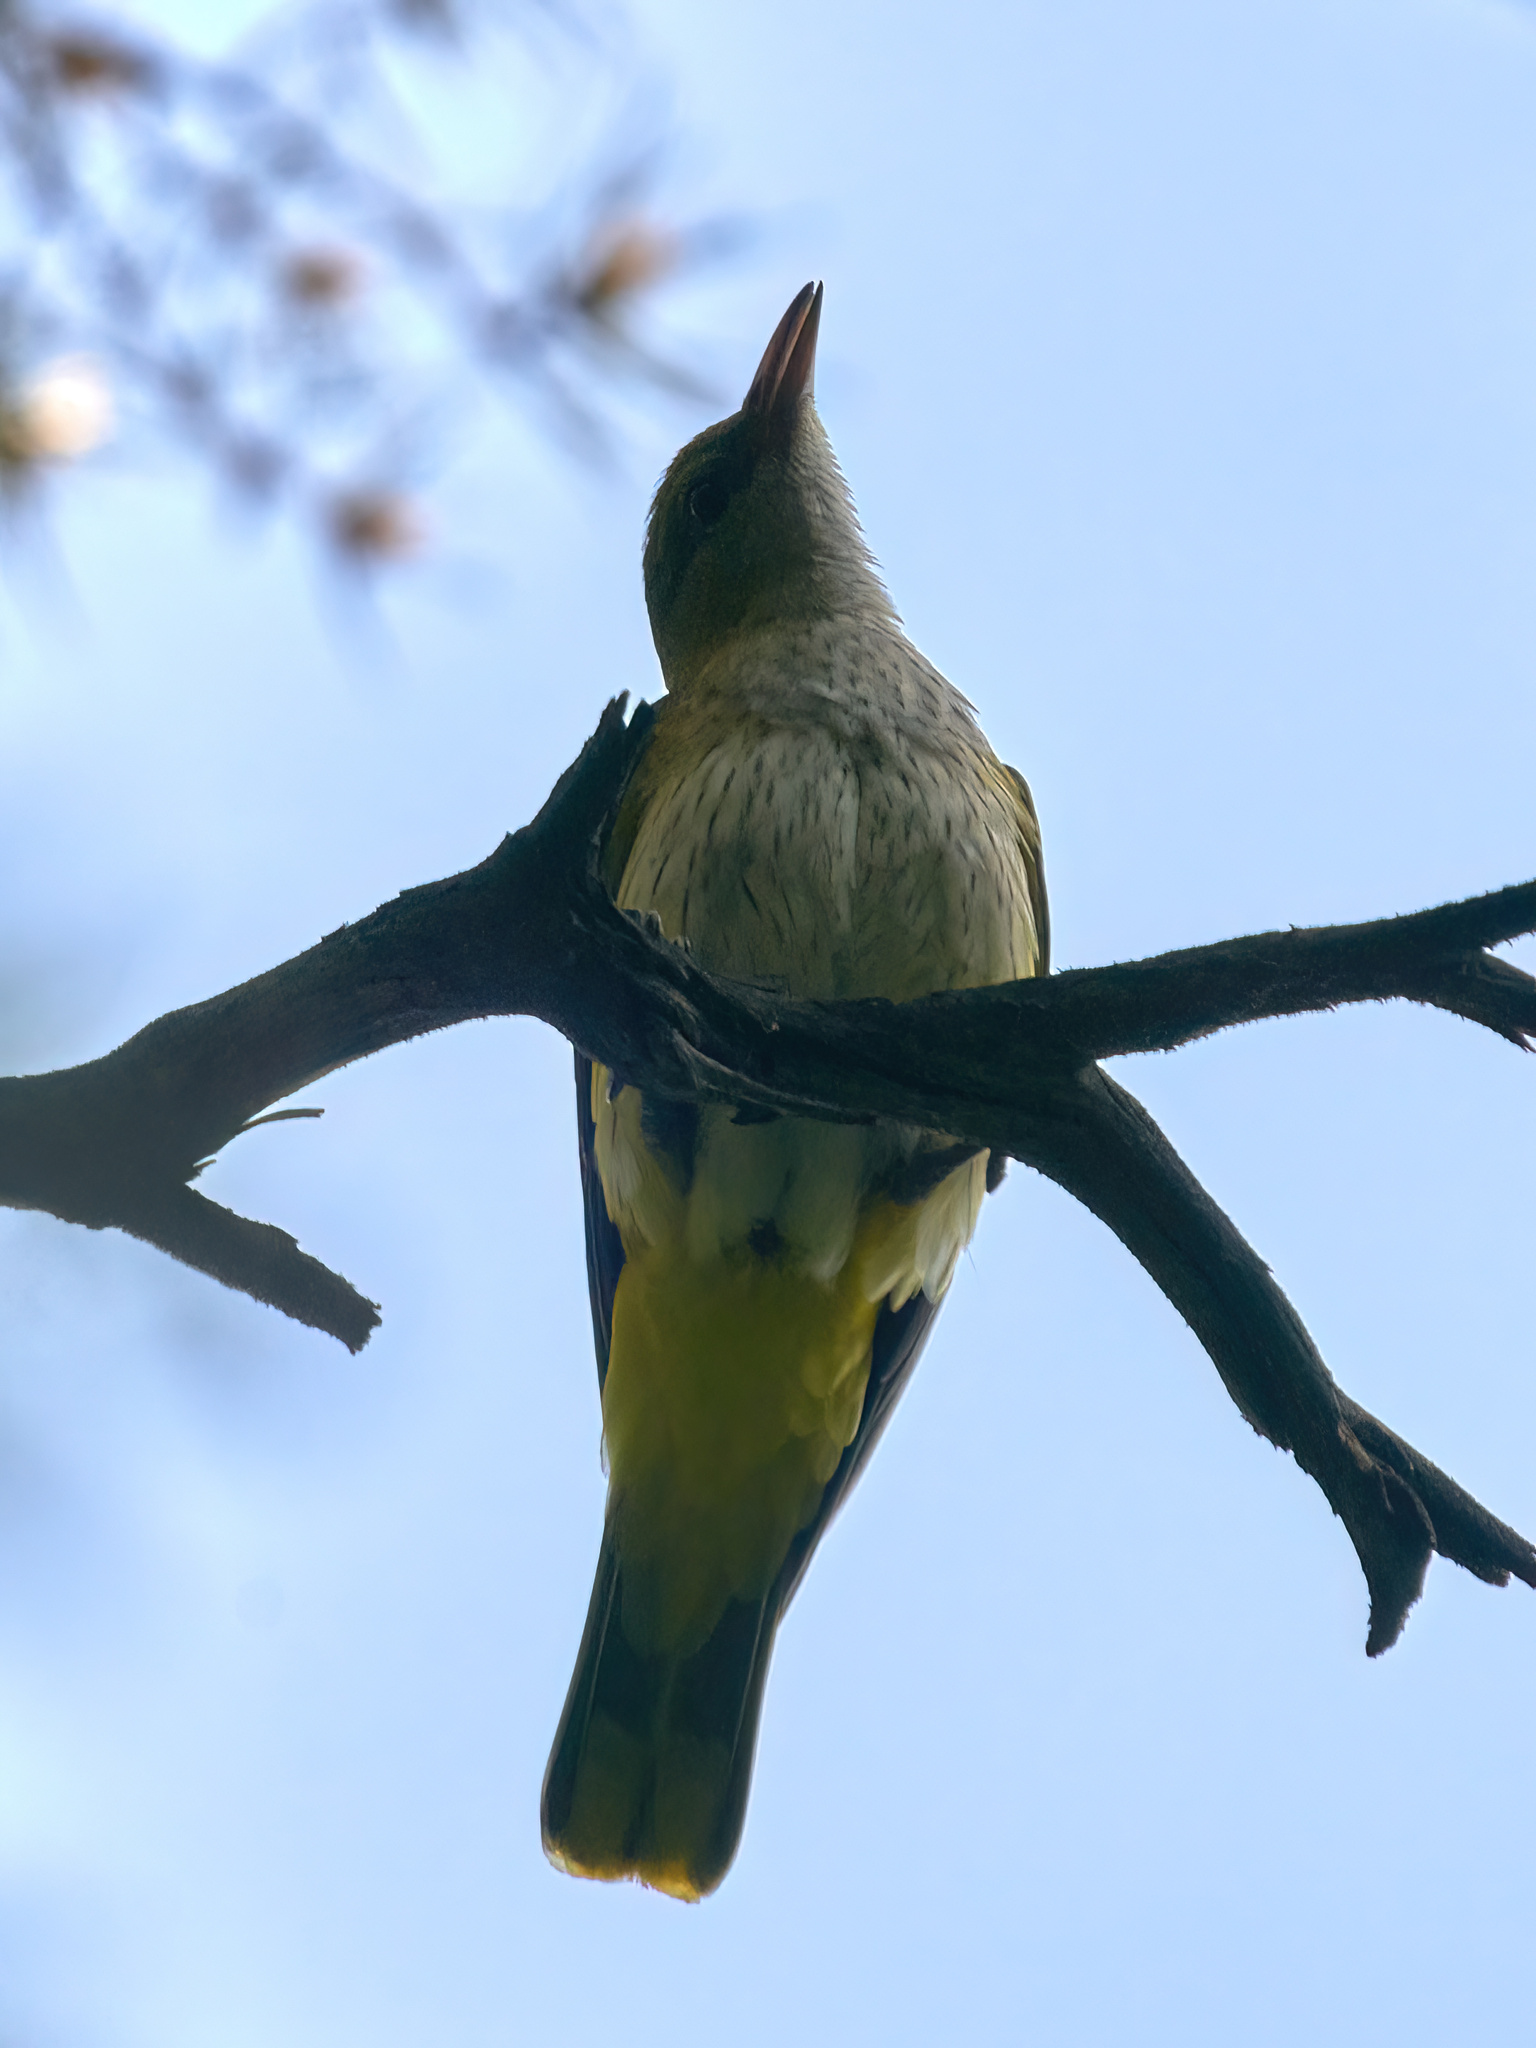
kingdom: Animalia
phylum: Chordata
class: Aves
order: Passeriformes
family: Oriolidae
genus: Oriolus
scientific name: Oriolus oriolus
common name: Eurasian golden oriole
